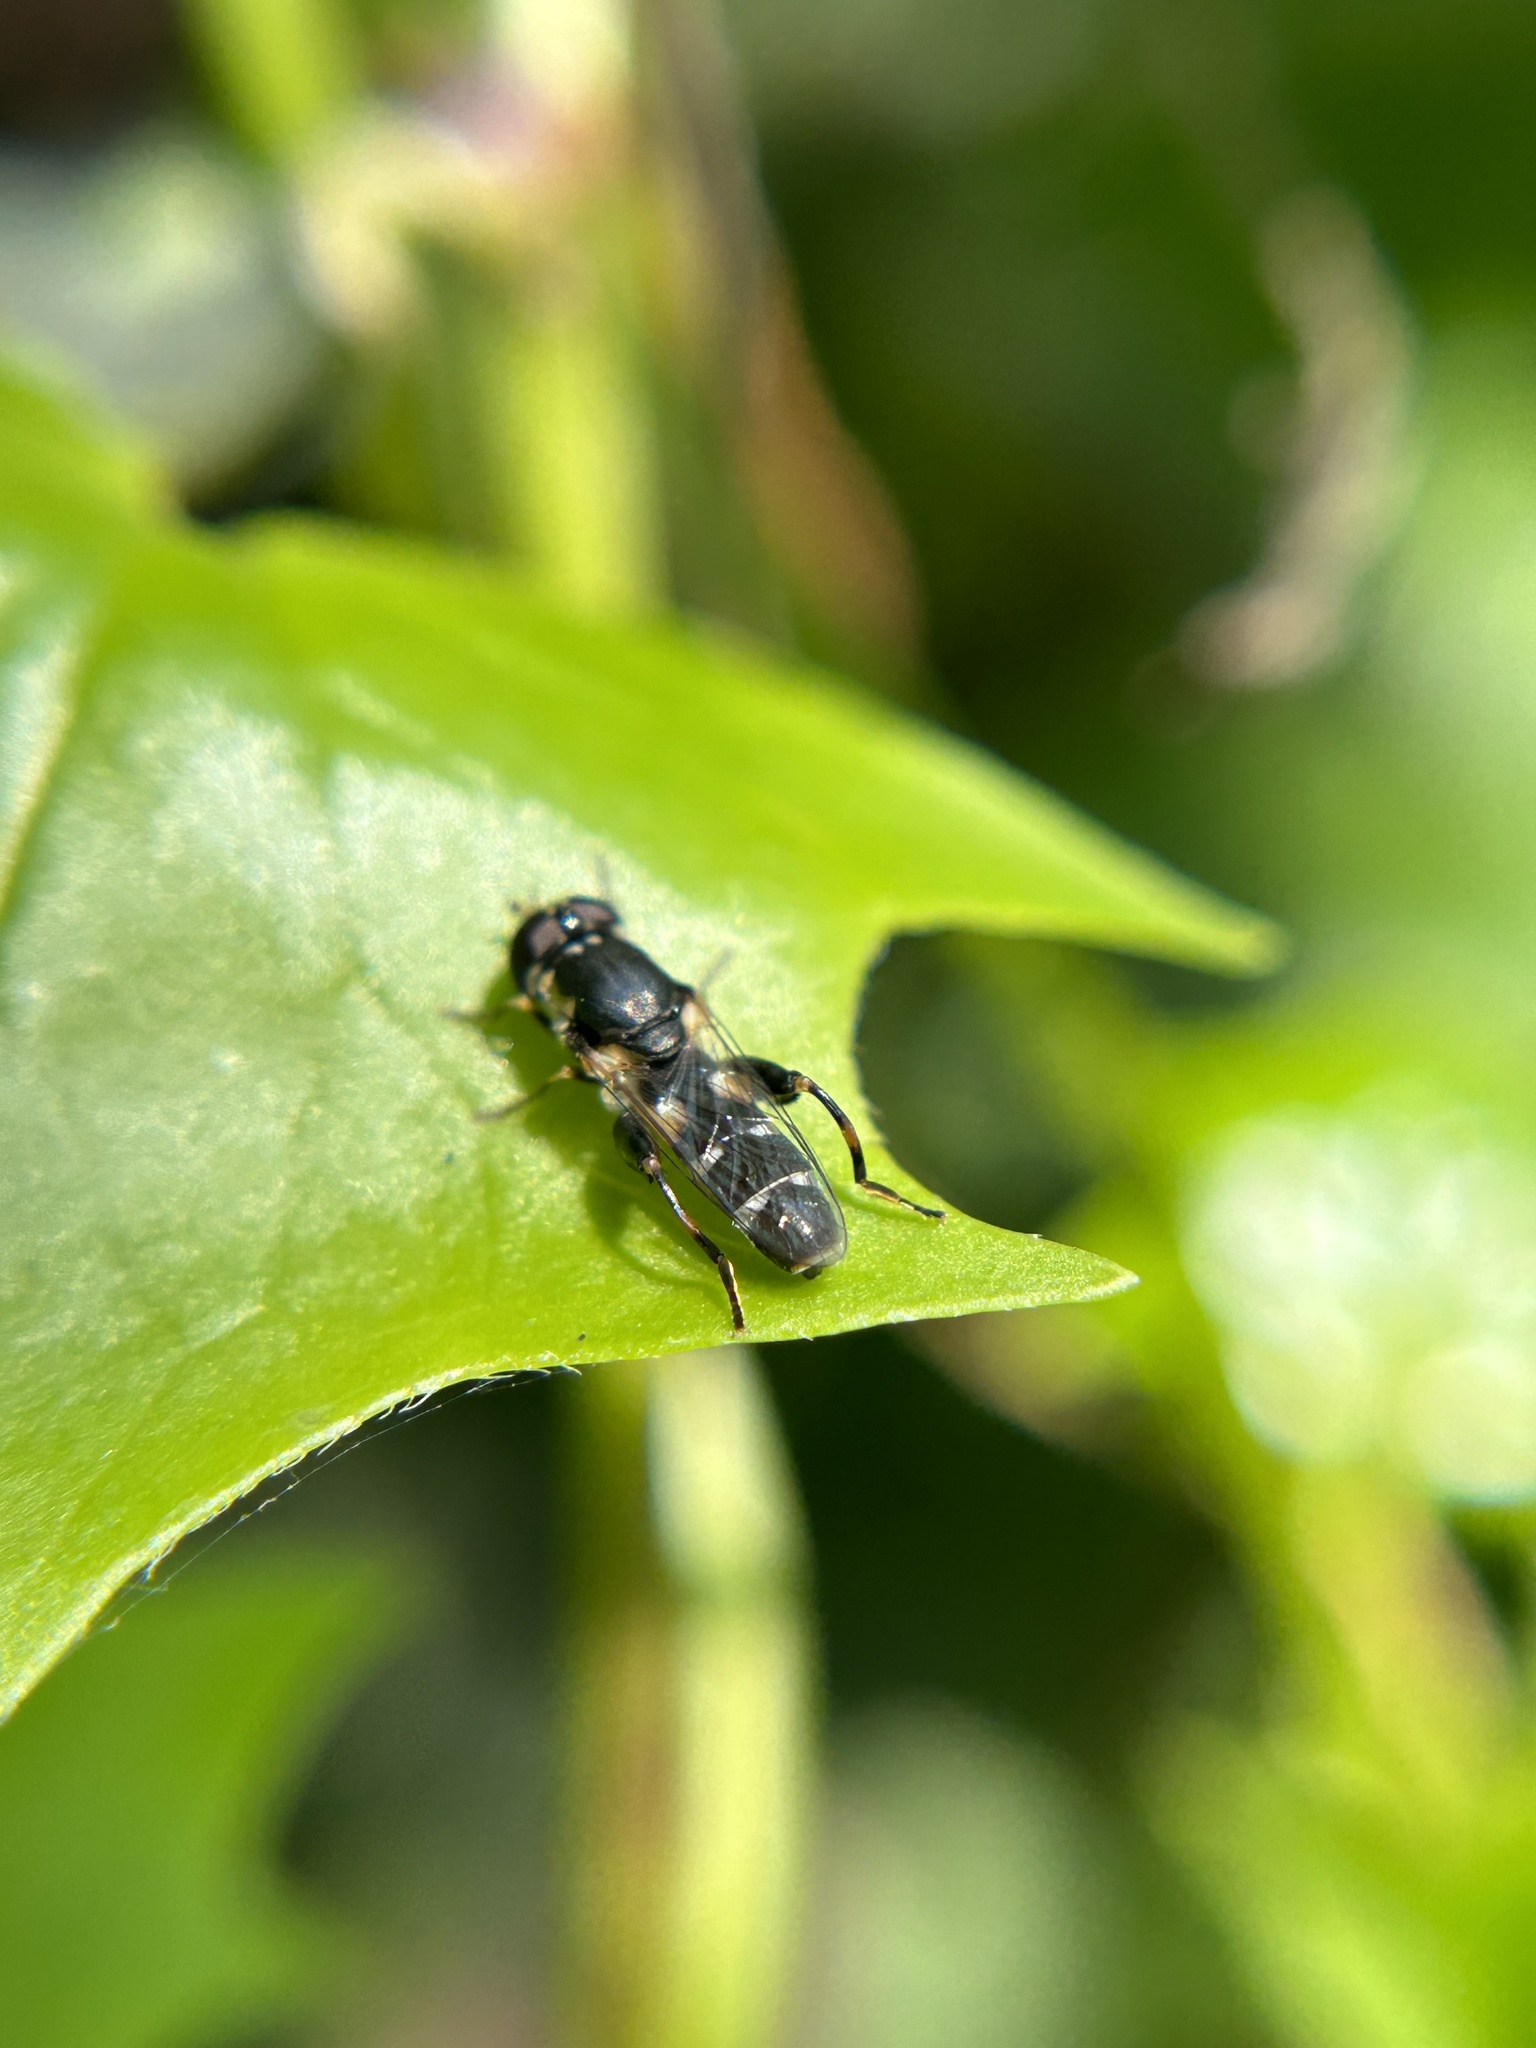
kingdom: Animalia
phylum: Arthropoda
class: Insecta
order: Diptera
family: Syrphidae
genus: Syritta
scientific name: Syritta pipiens
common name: Hover fly
